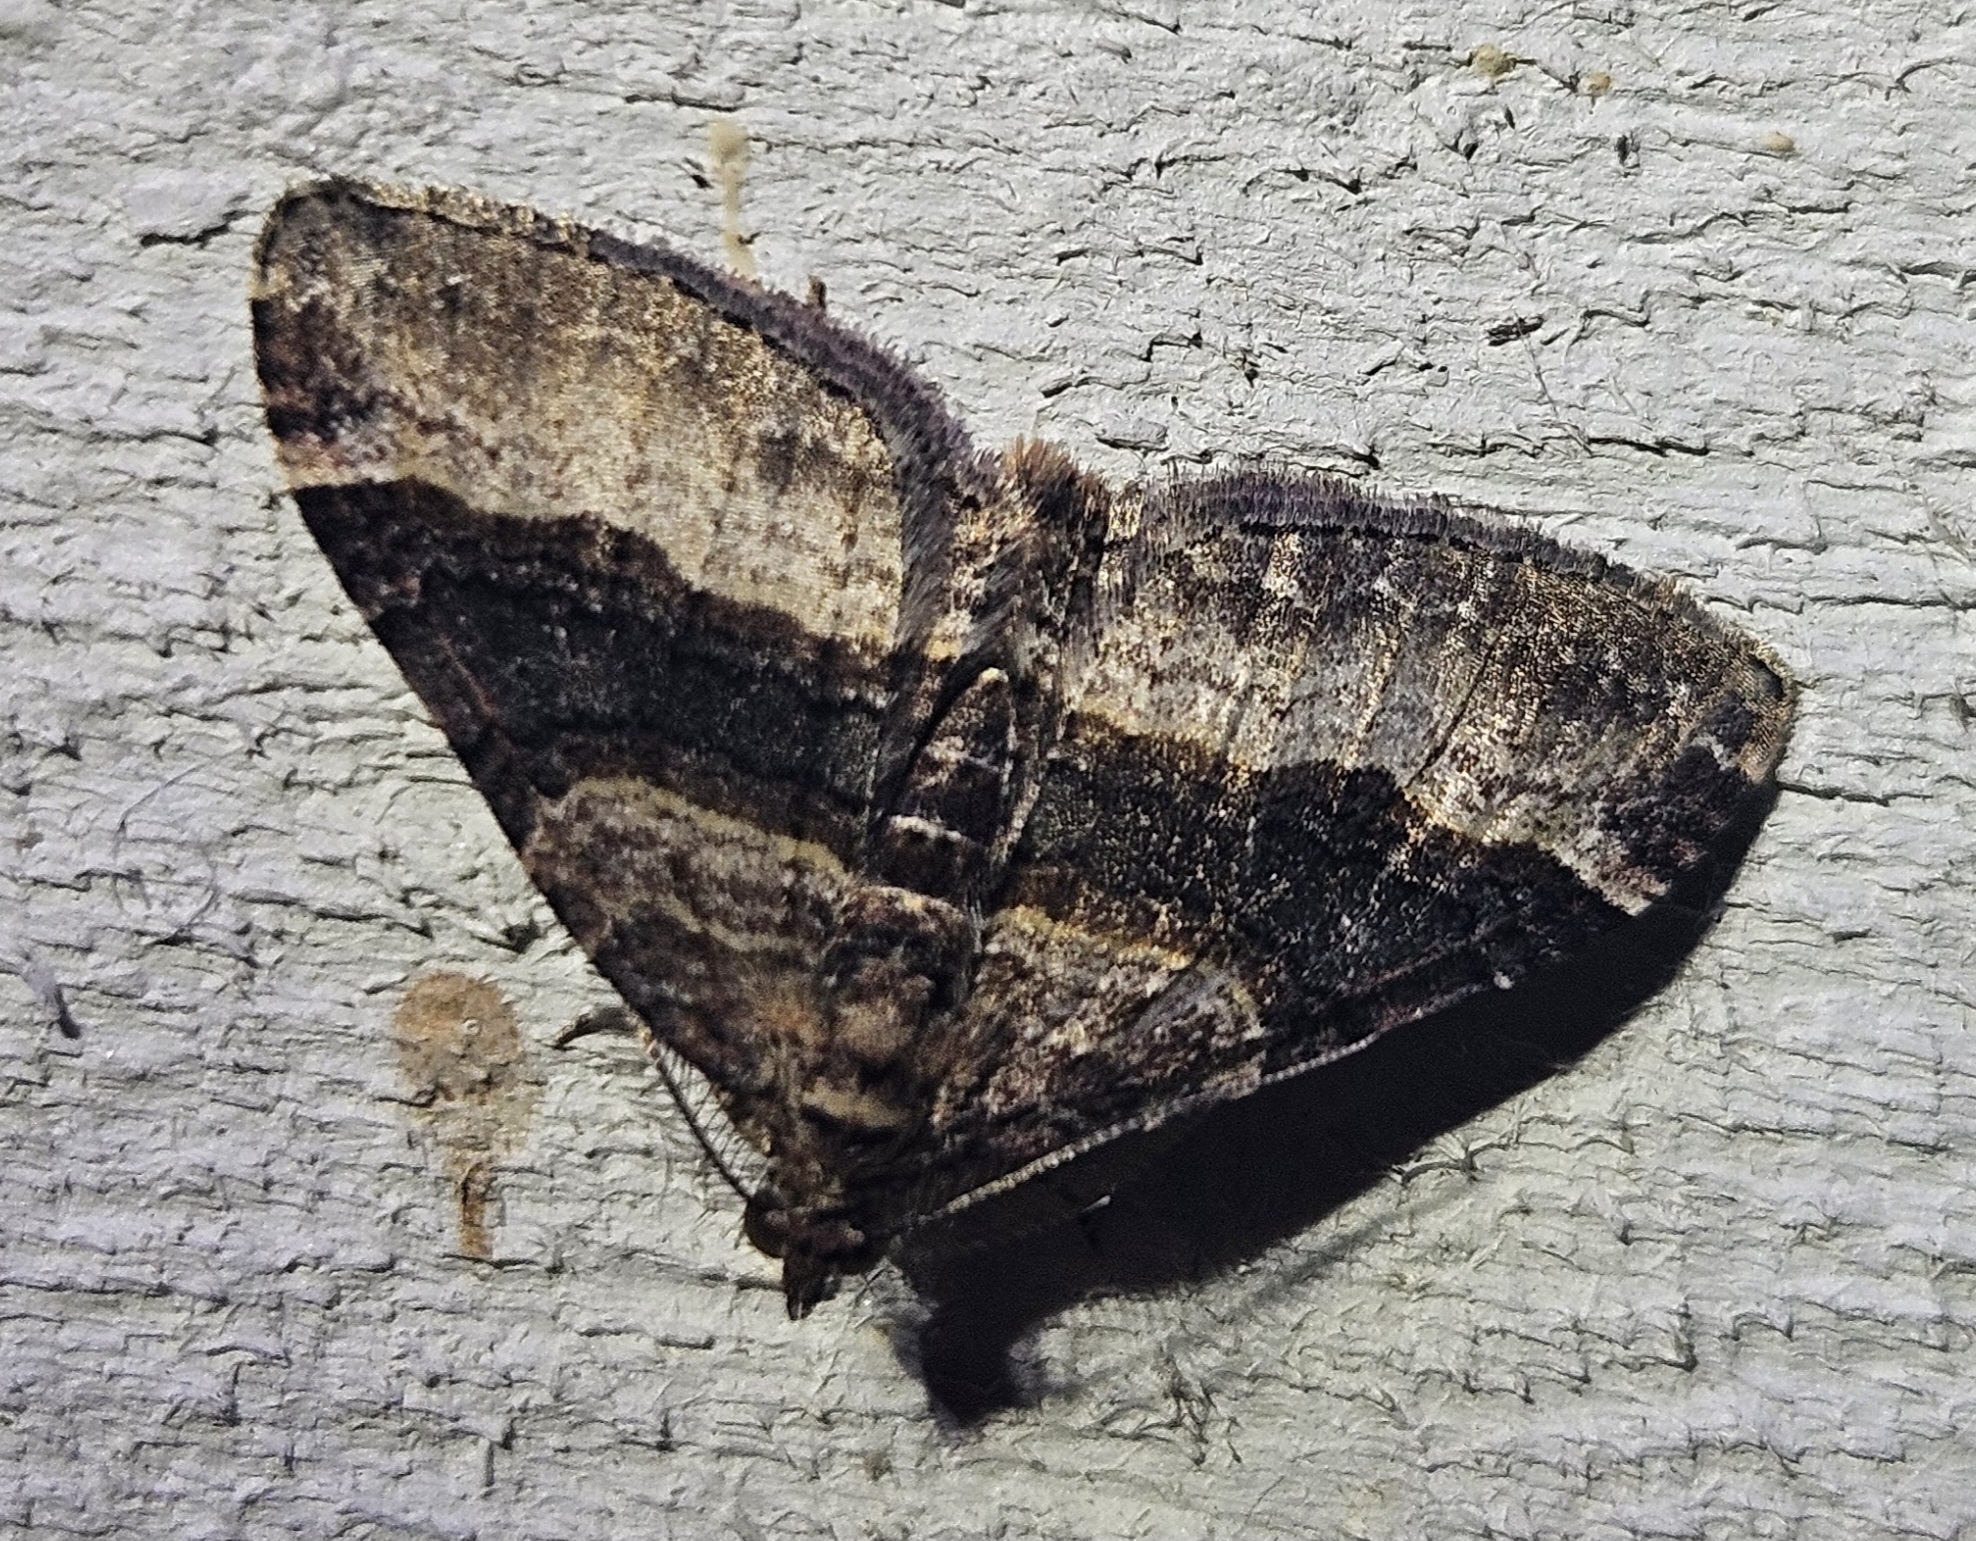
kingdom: Animalia
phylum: Arthropoda
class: Insecta
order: Lepidoptera
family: Geometridae
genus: Epyaxa
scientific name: Epyaxa lucidata
